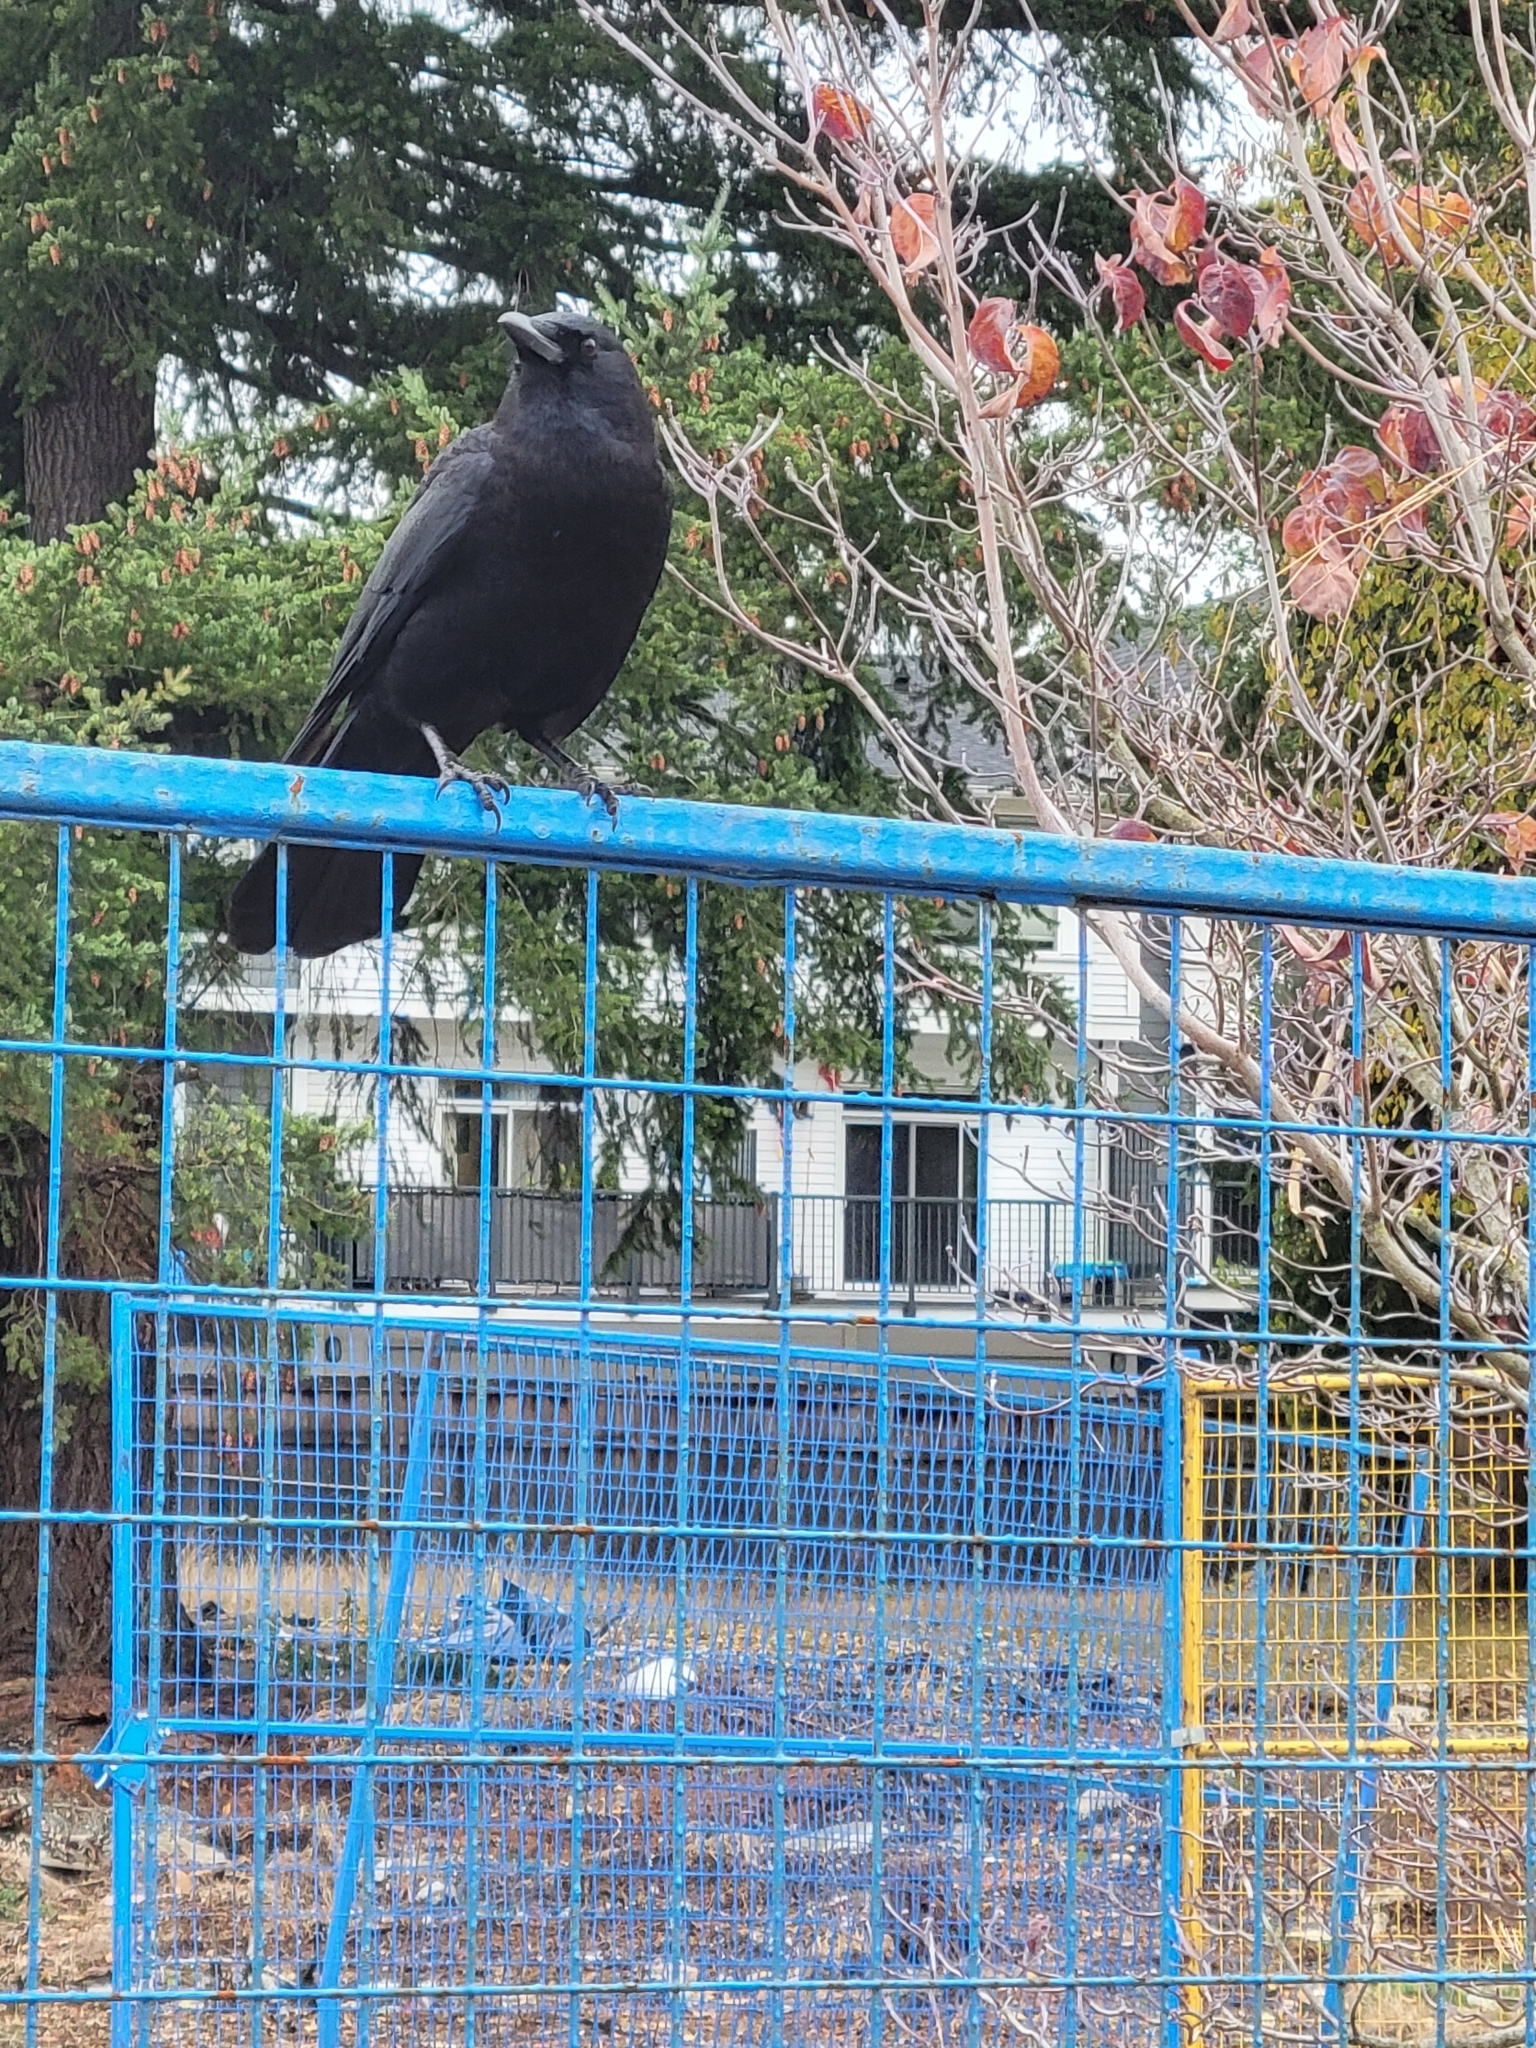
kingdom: Animalia
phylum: Chordata
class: Aves
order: Passeriformes
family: Corvidae
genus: Corvus
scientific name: Corvus brachyrhynchos
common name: American crow
